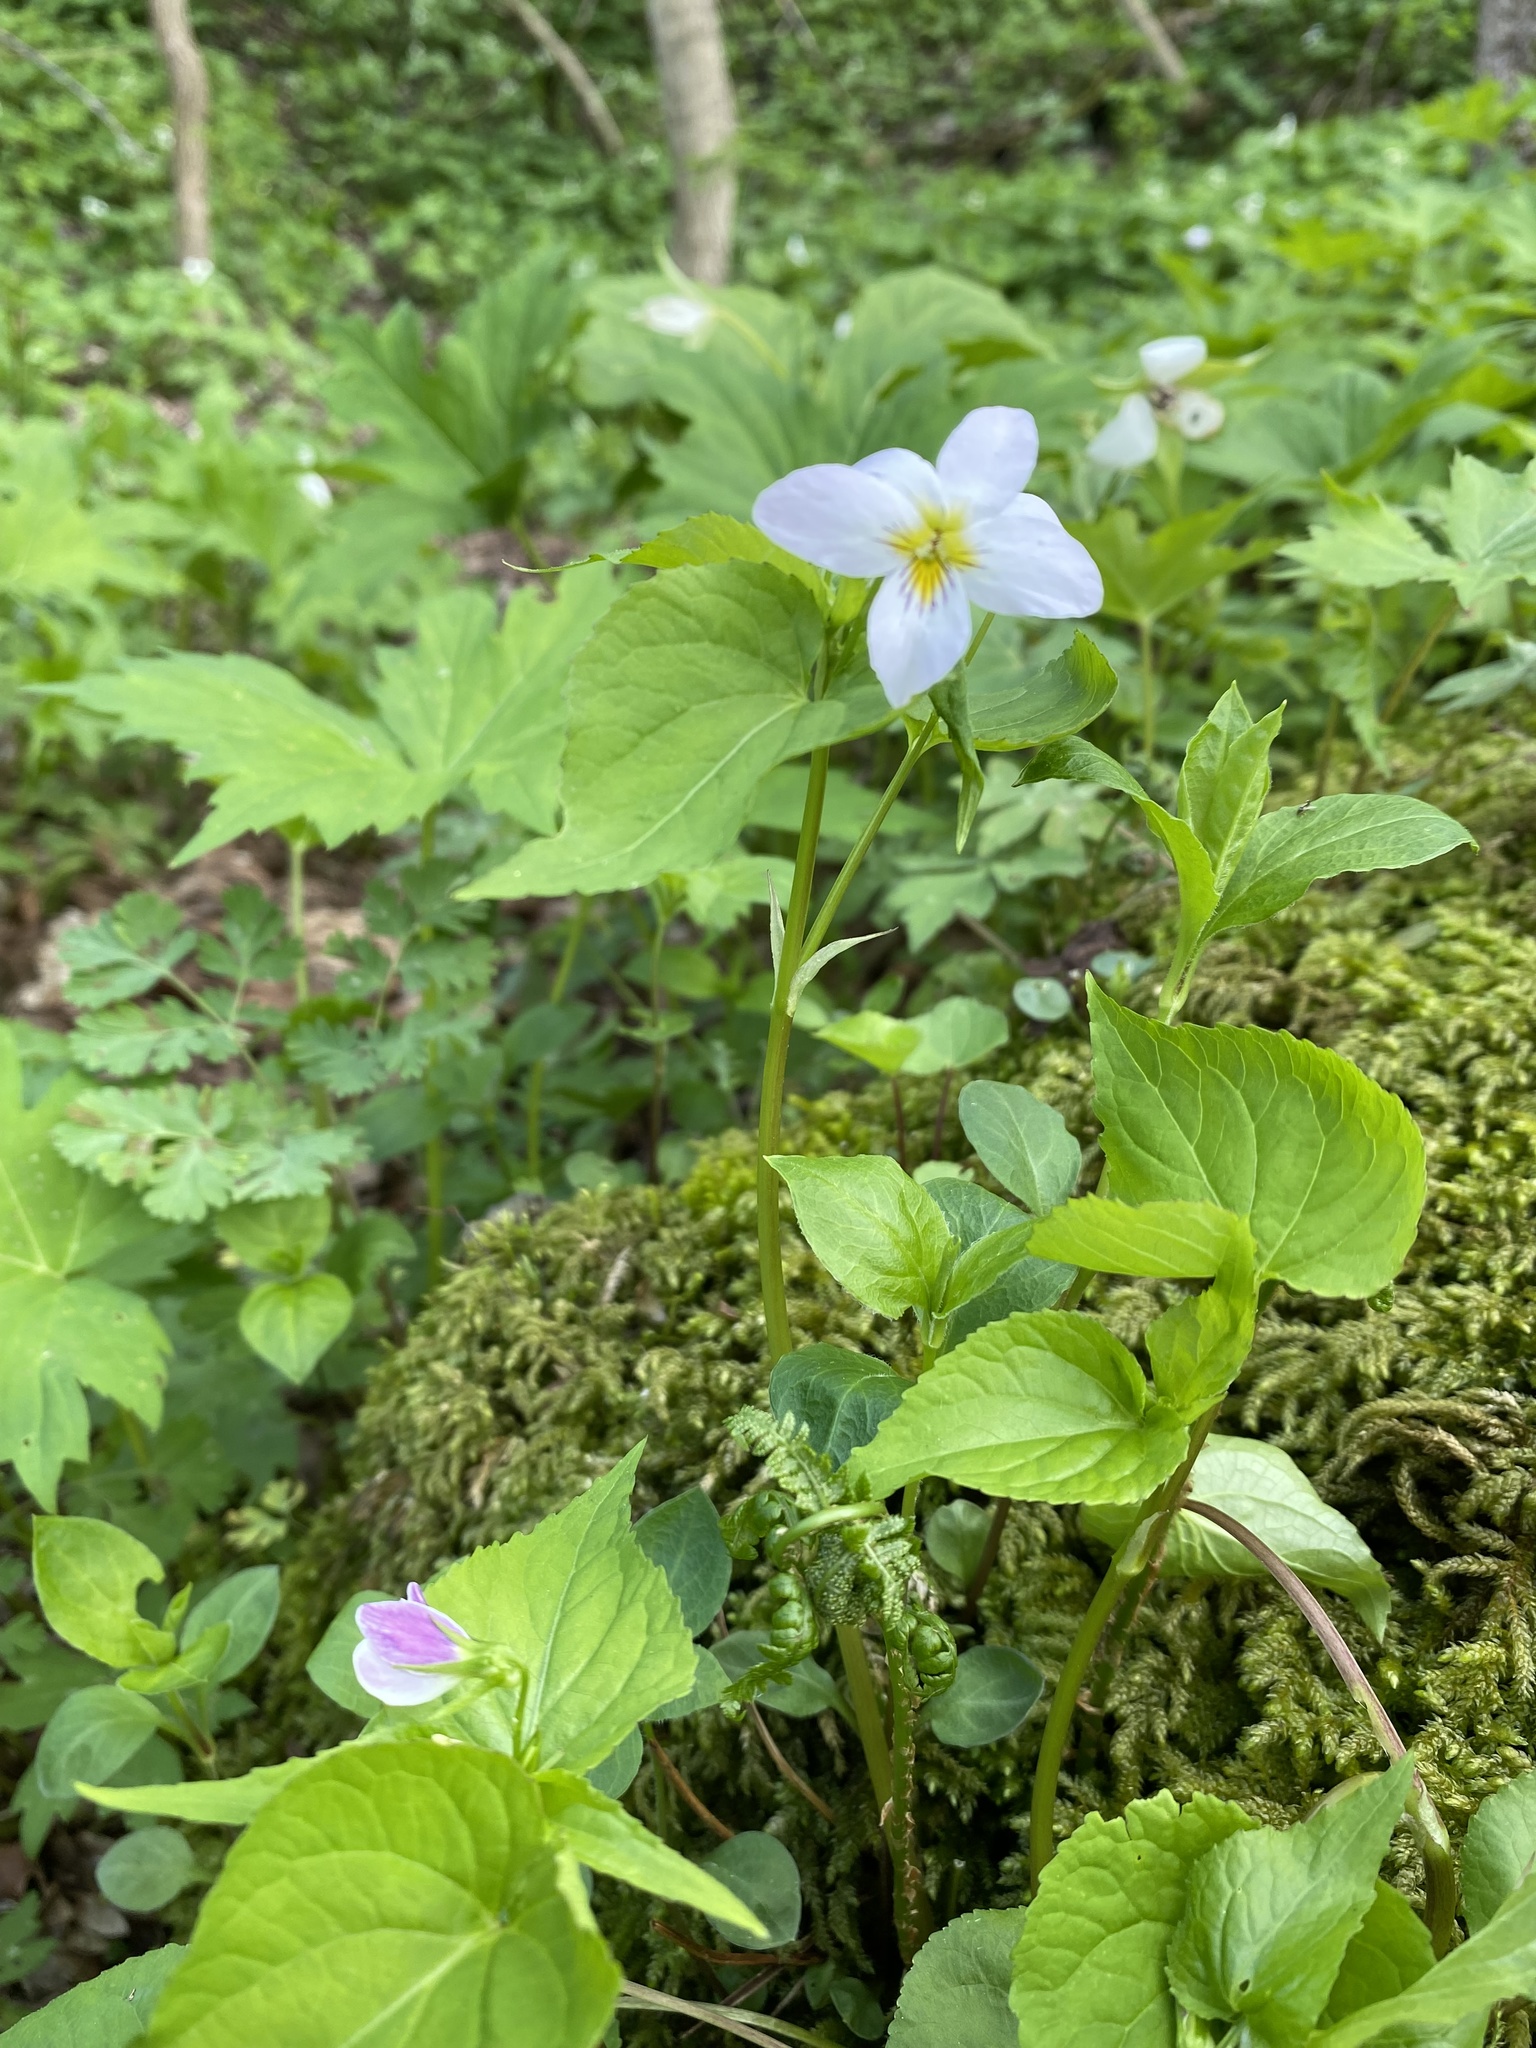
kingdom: Plantae
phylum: Tracheophyta
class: Magnoliopsida
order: Malpighiales
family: Violaceae
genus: Viola
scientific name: Viola canadensis
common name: Canada violet
